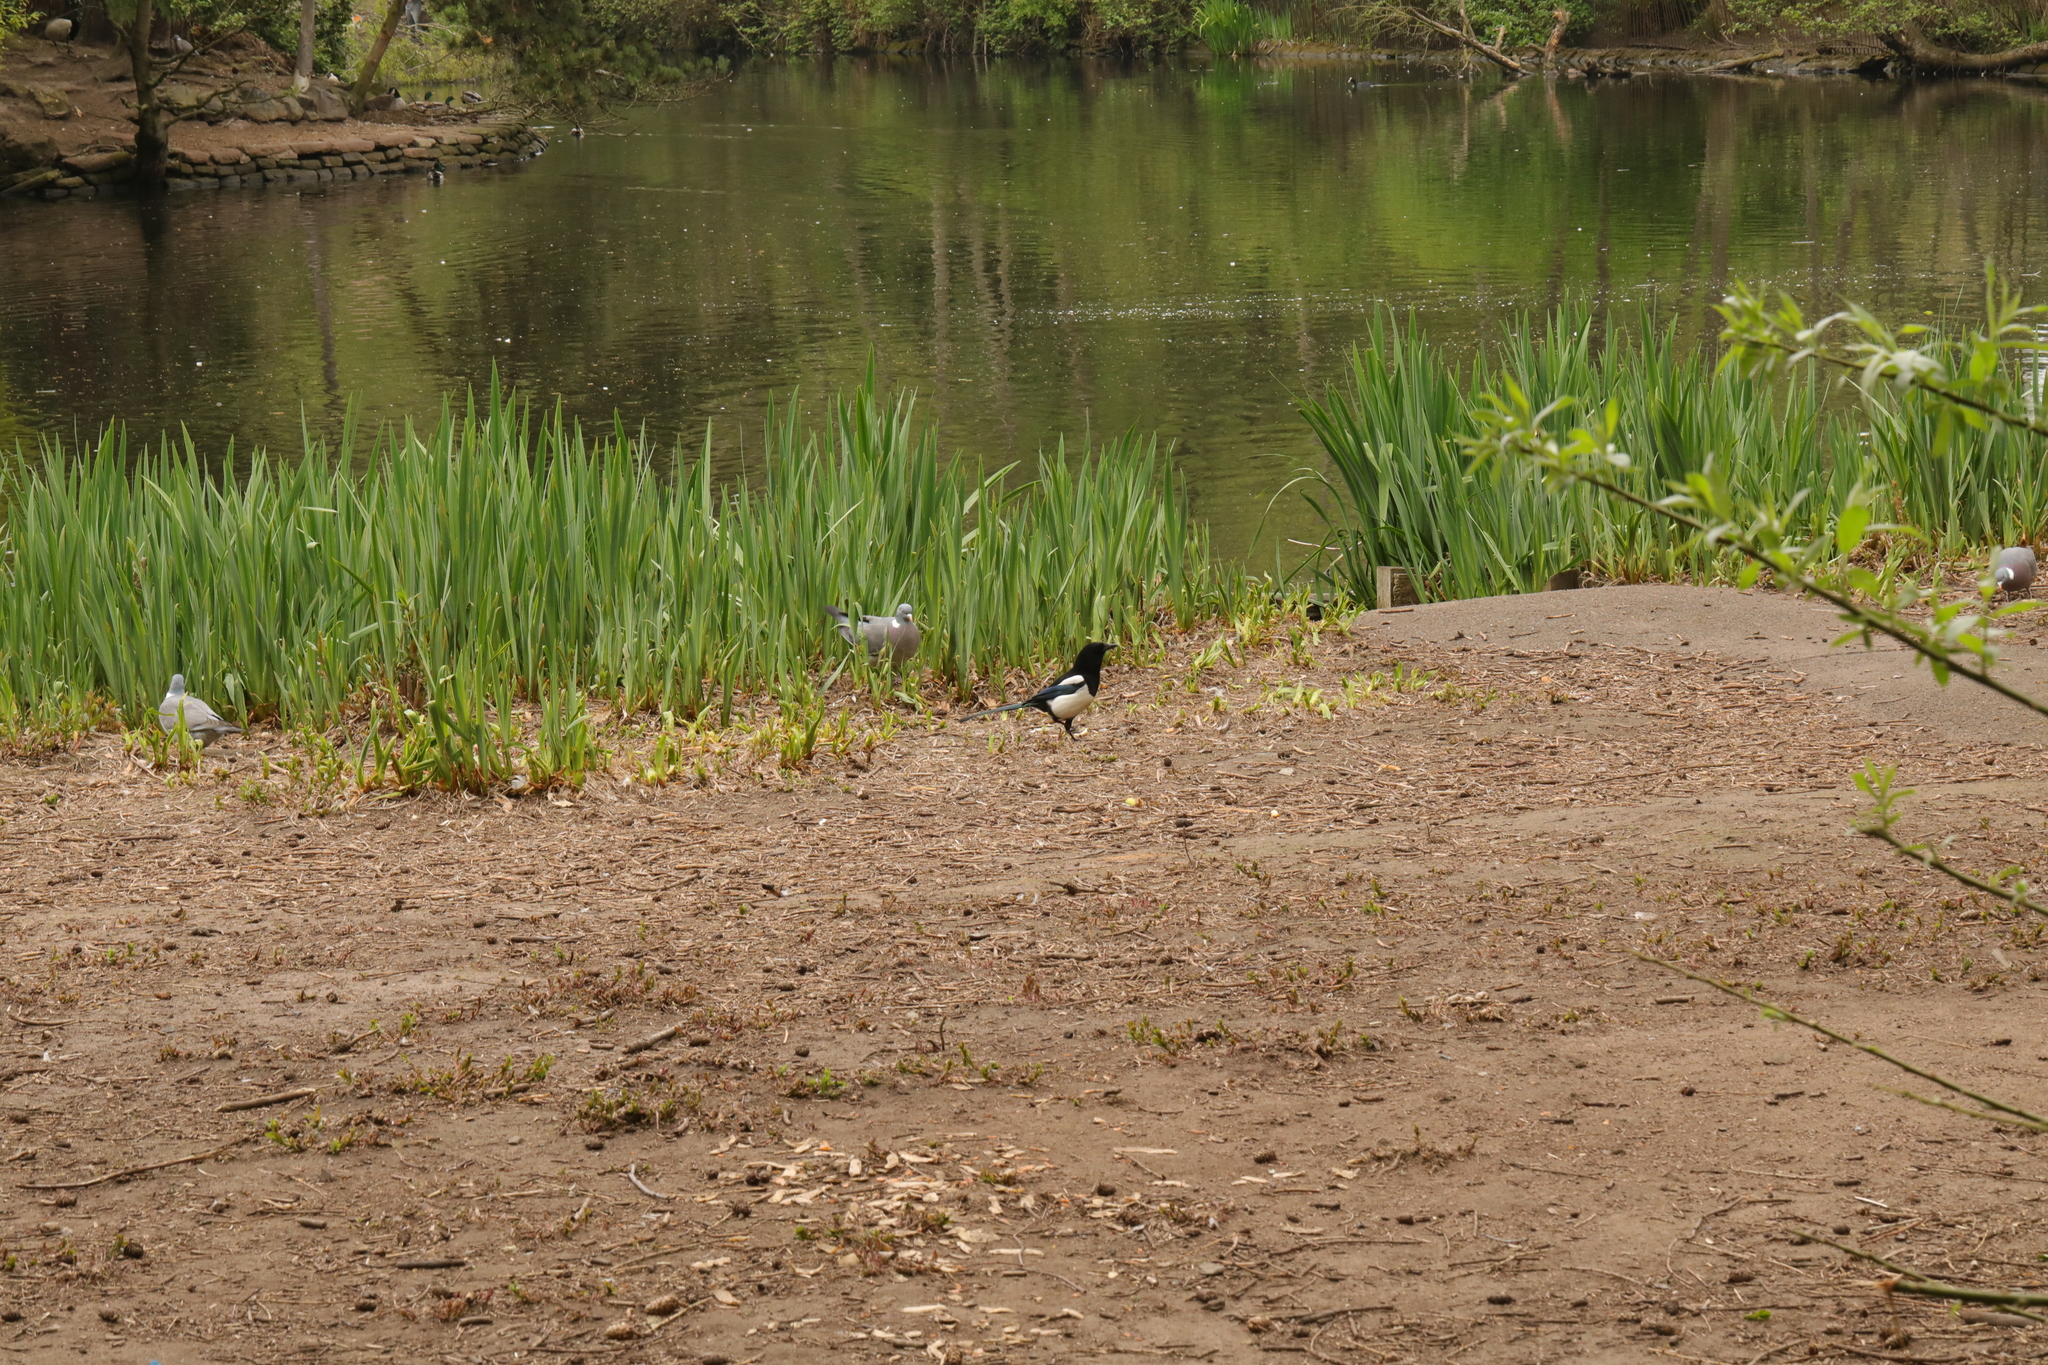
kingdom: Animalia
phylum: Chordata
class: Aves
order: Passeriformes
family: Corvidae
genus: Pica
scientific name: Pica pica
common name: Eurasian magpie
